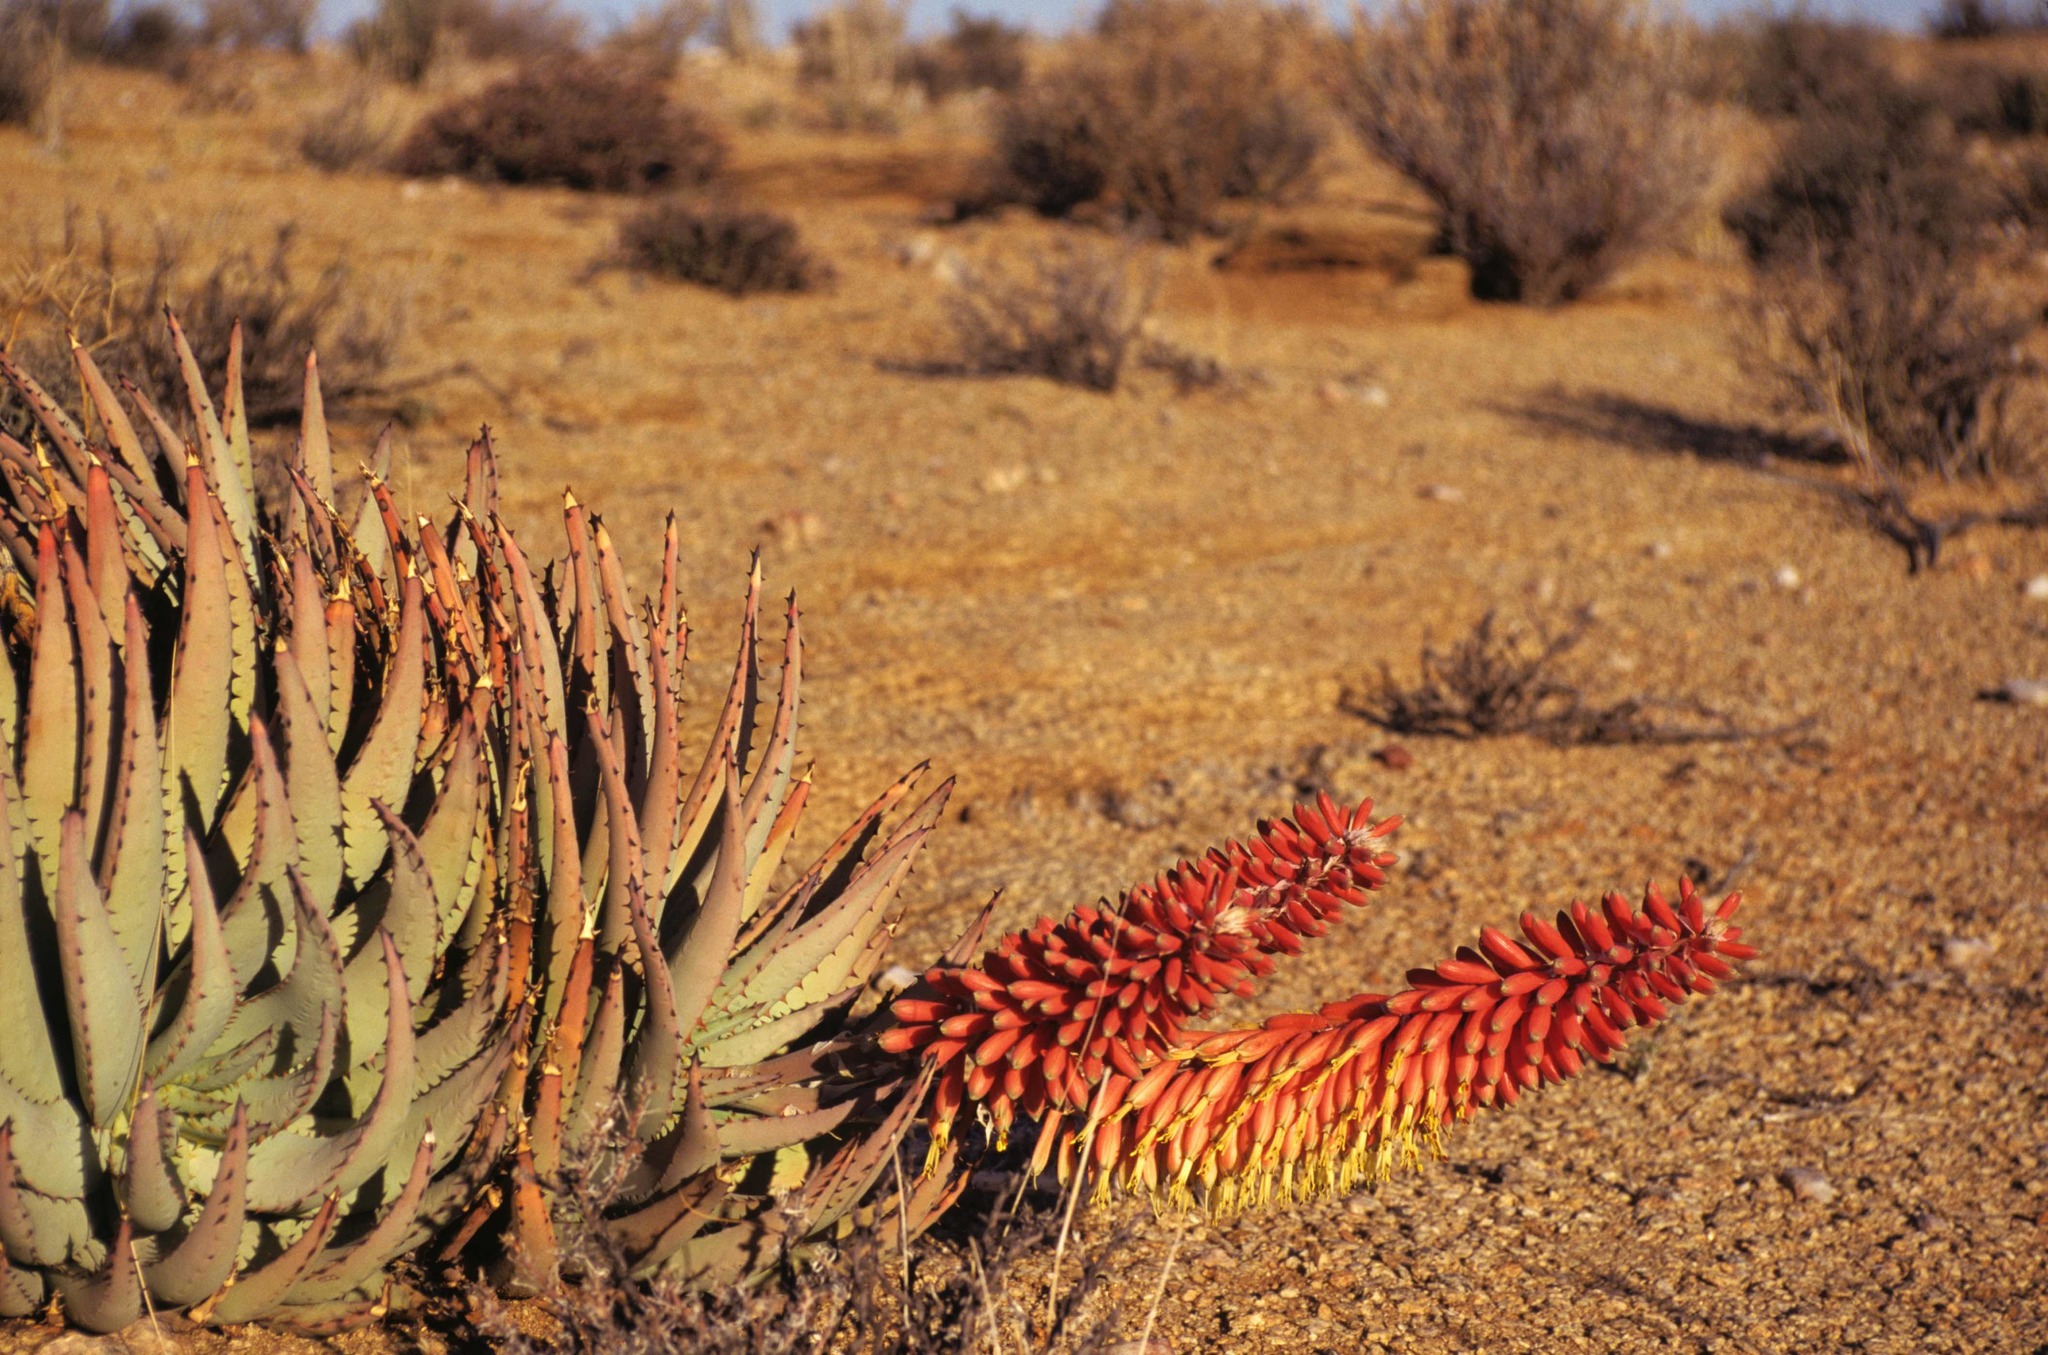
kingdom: Plantae
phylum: Tracheophyta
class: Liliopsida
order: Asparagales
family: Asphodelaceae
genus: Aloe
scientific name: Aloe claviflora
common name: Cannon aloe
